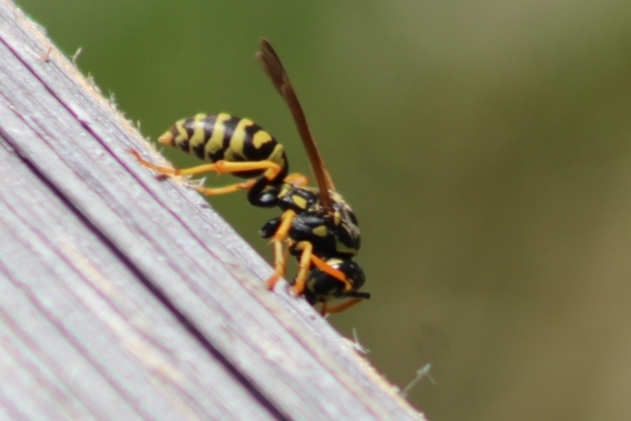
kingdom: Animalia
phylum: Arthropoda
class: Insecta
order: Hymenoptera
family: Eumenidae
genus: Polistes
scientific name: Polistes dominula
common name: Paper wasp
